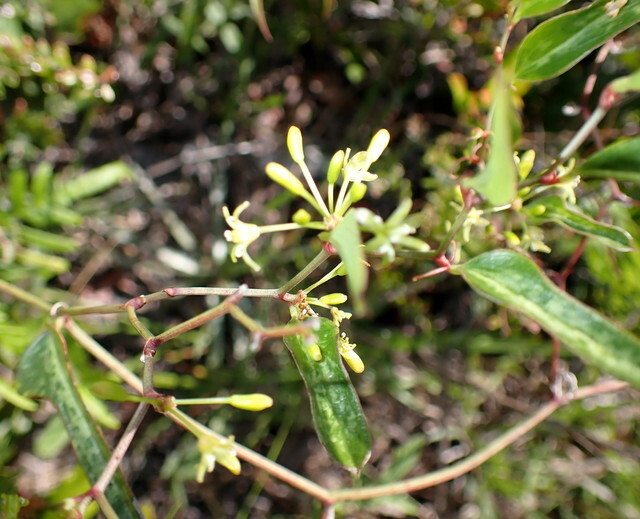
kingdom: Plantae
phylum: Tracheophyta
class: Liliopsida
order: Liliales
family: Smilacaceae
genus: Smilax
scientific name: Smilax auriculata
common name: Wild bamboo
